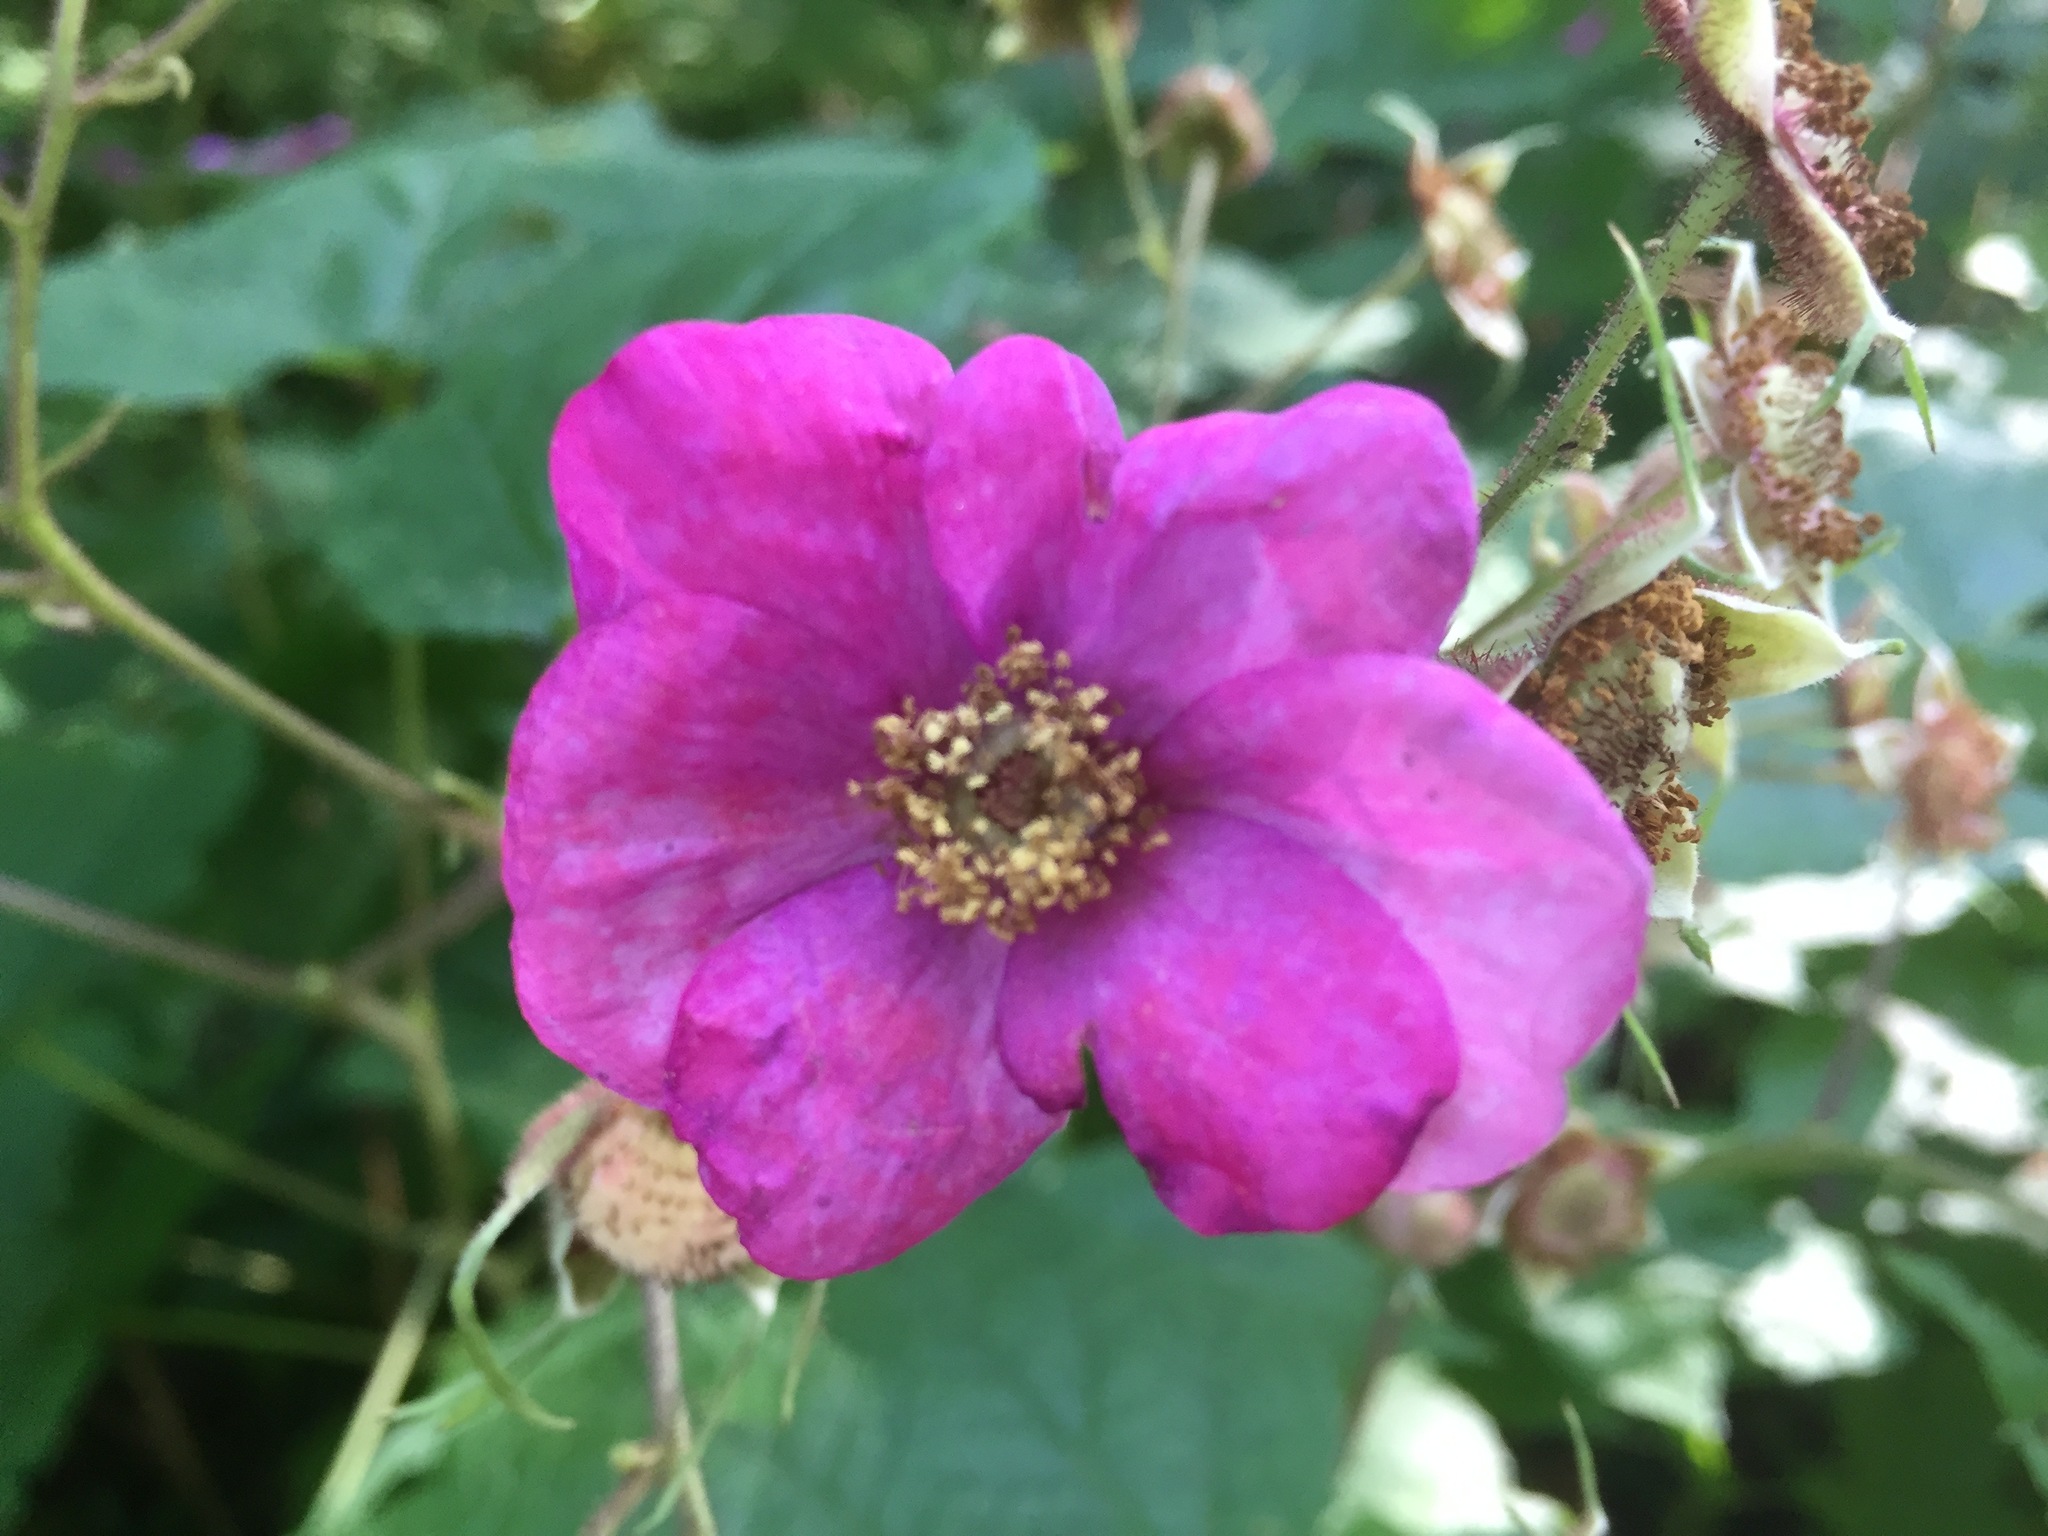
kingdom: Plantae
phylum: Tracheophyta
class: Magnoliopsida
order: Rosales
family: Rosaceae
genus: Rubus
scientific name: Rubus odoratus
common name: Purple-flowered raspberry
